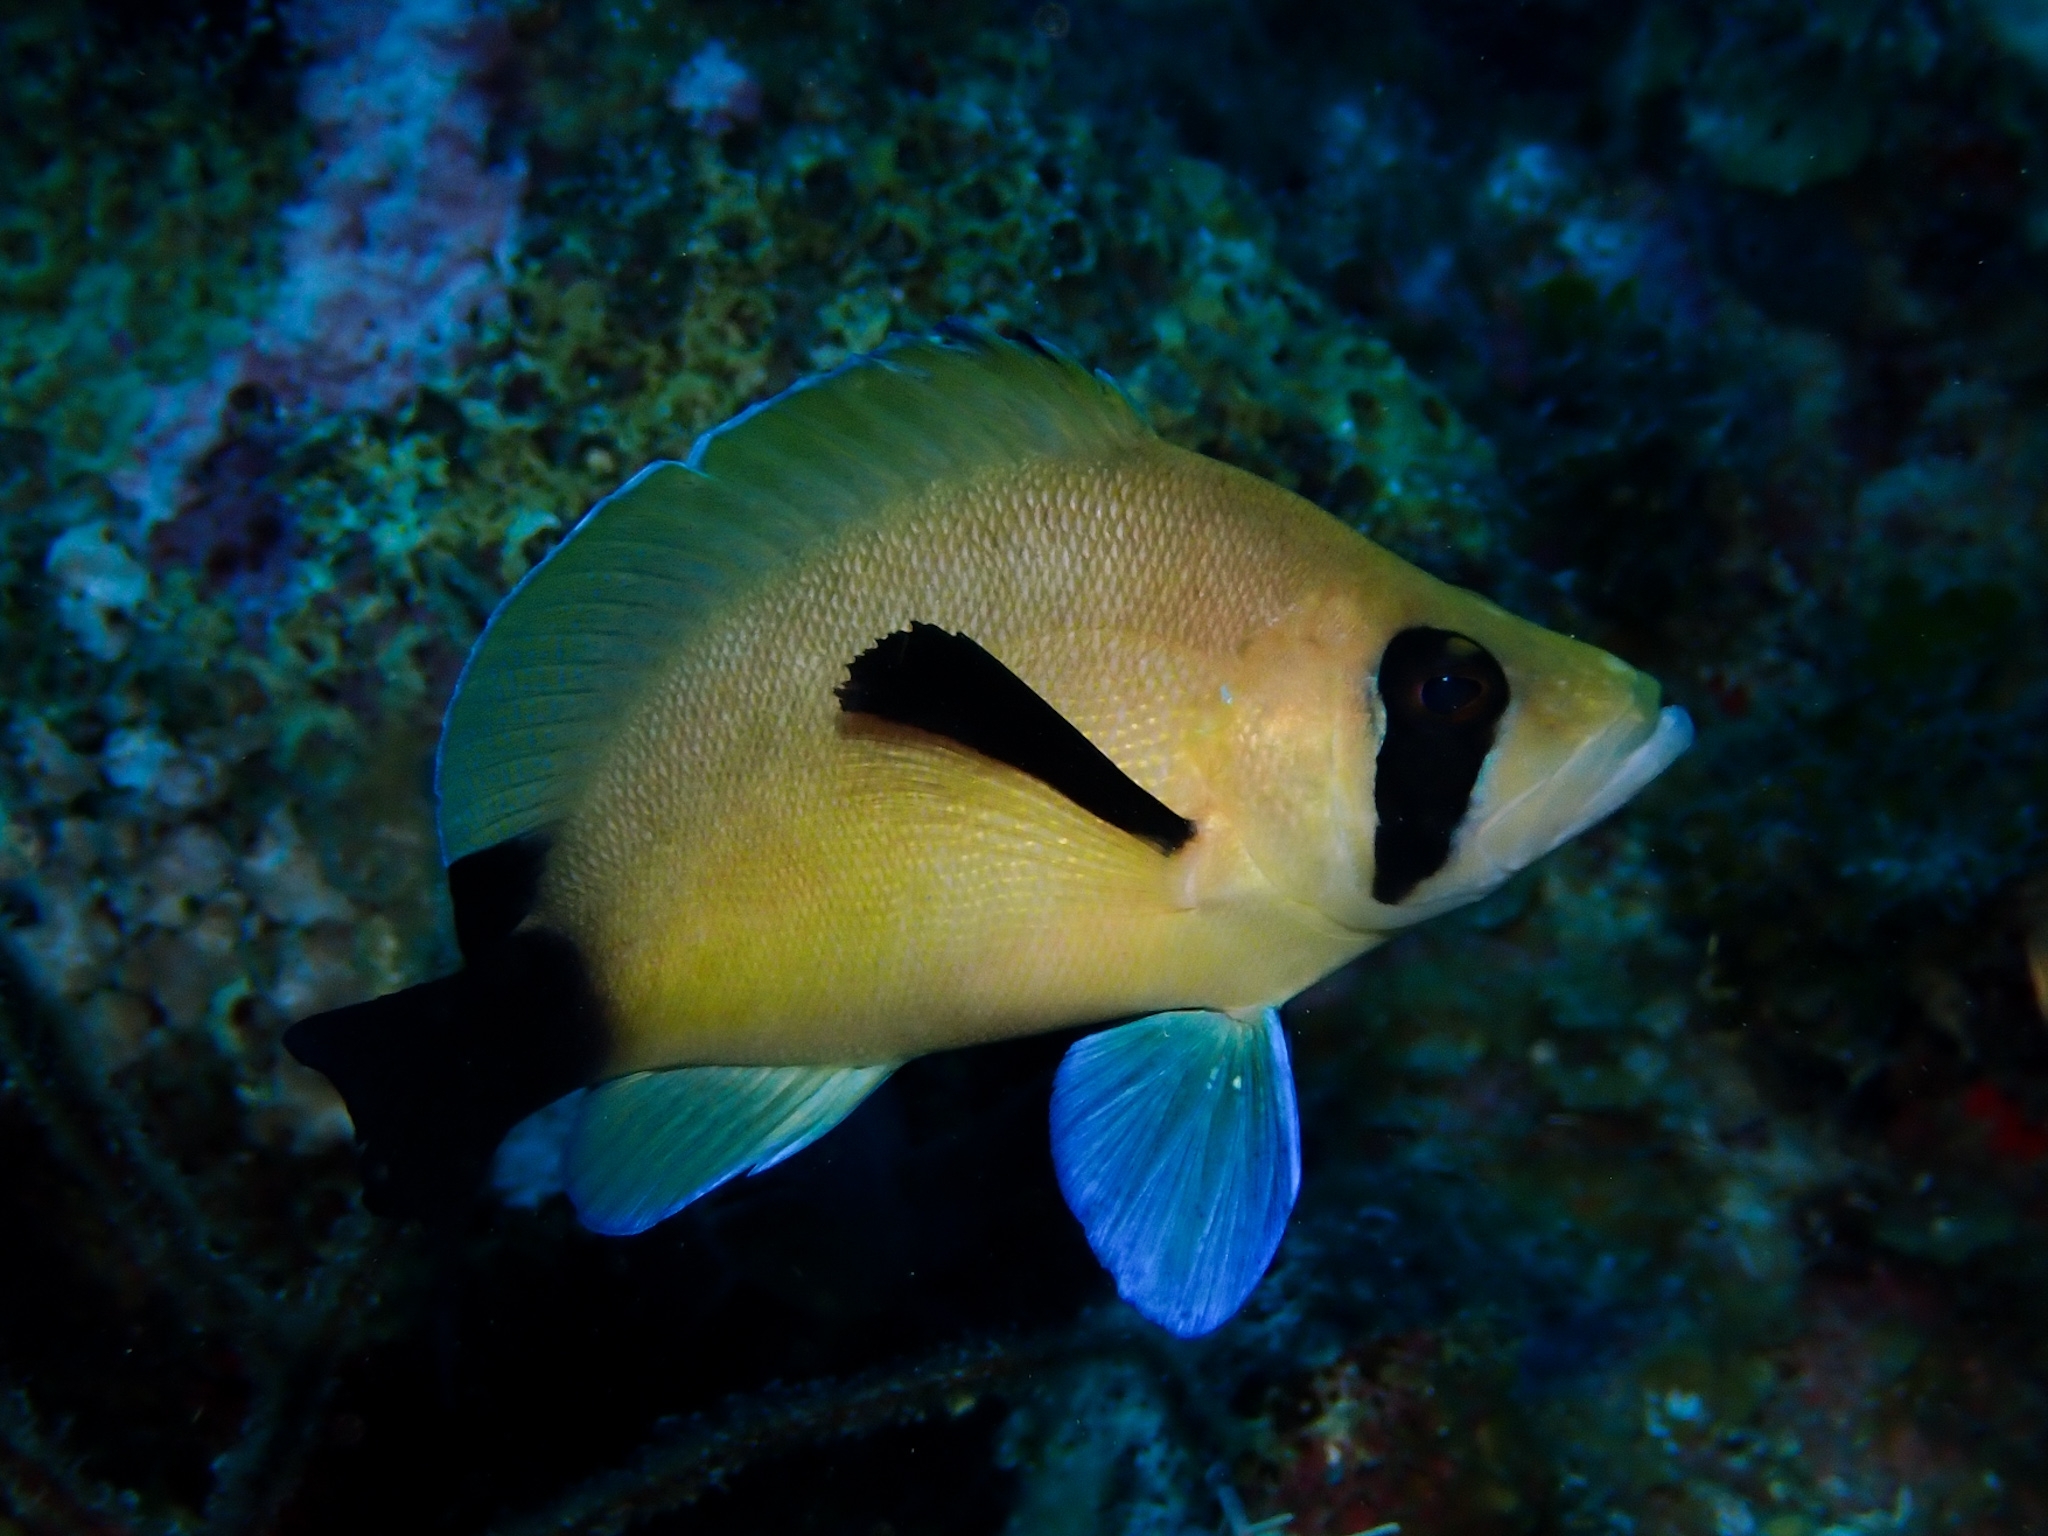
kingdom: Animalia
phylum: Chordata
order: Perciformes
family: Serranidae
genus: Hypoplectrus
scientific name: Hypoplectrus providencianus
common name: Masked hamlet
